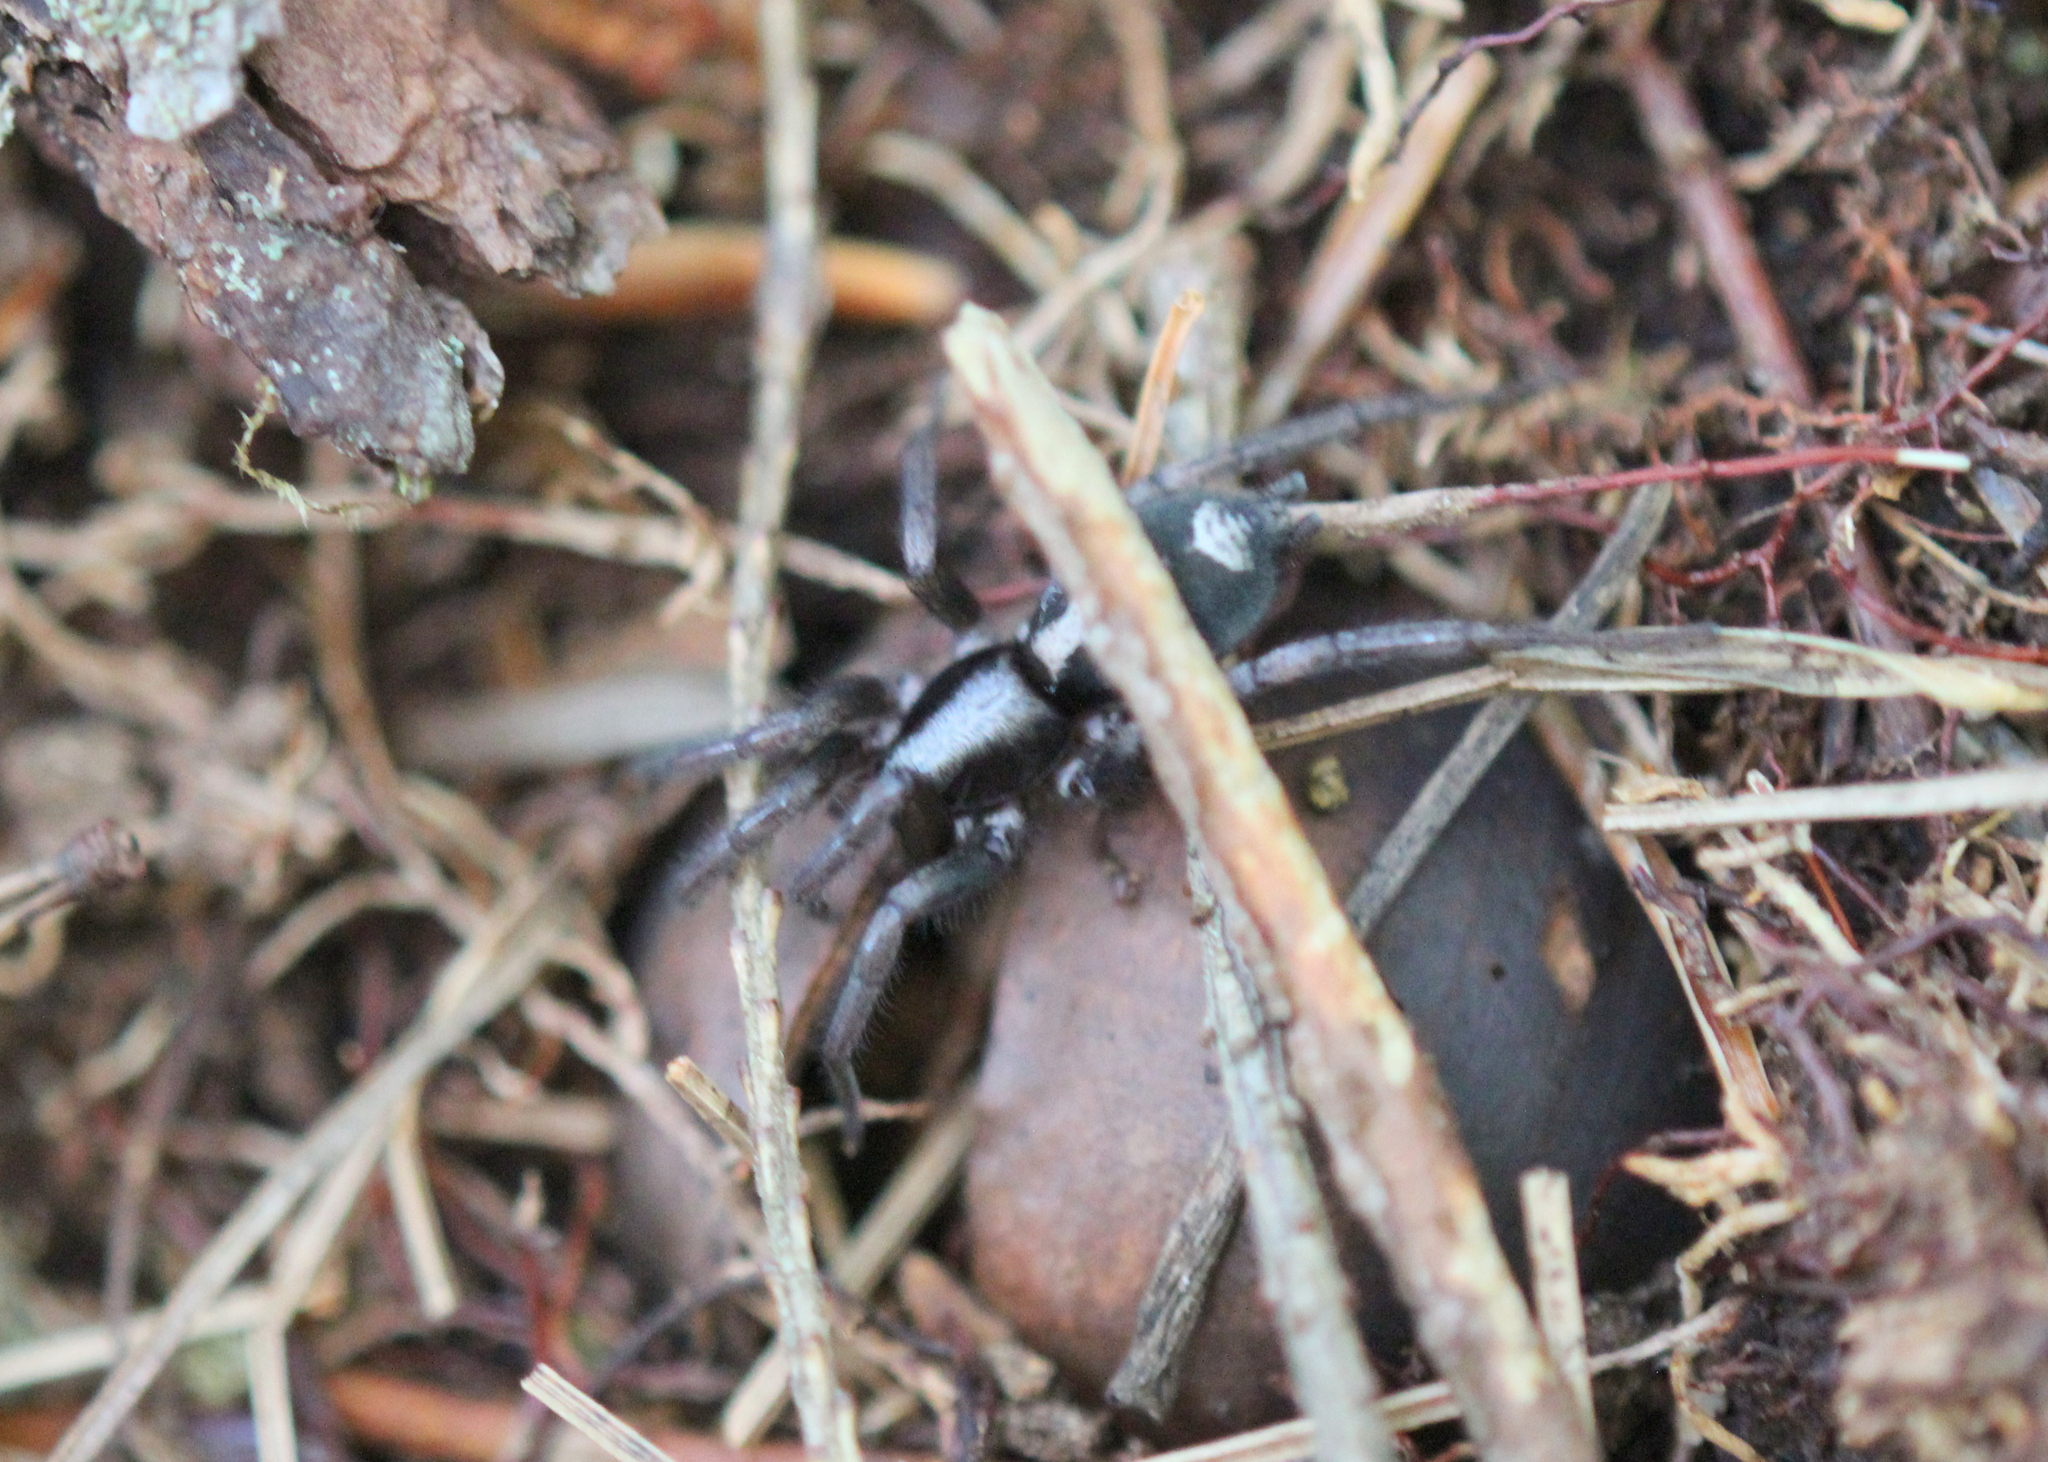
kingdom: Animalia
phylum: Arthropoda
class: Arachnida
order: Araneae
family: Gnaphosidae
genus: Herpyllus
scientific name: Herpyllus ecclesiasticus
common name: Eastern parson spider
